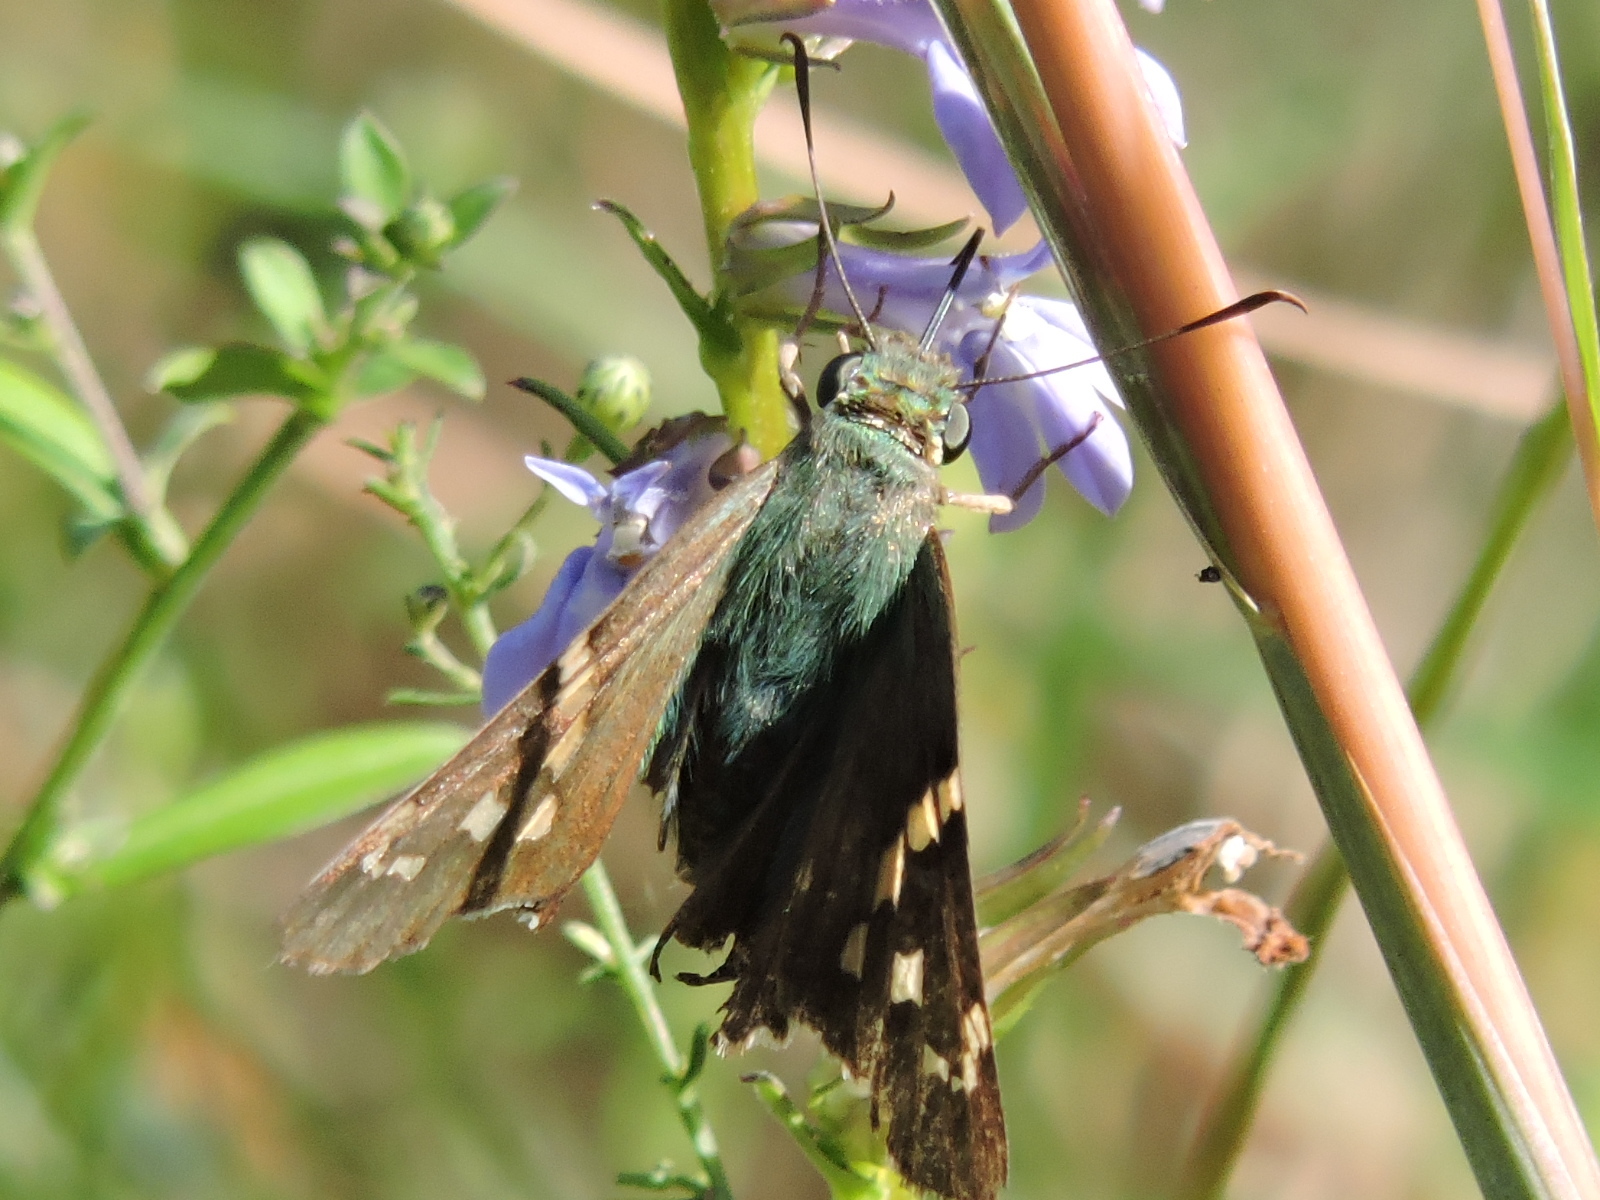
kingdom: Animalia
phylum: Arthropoda
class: Insecta
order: Lepidoptera
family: Hesperiidae
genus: Urbanus
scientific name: Urbanus proteus
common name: Long-tailed skipper
